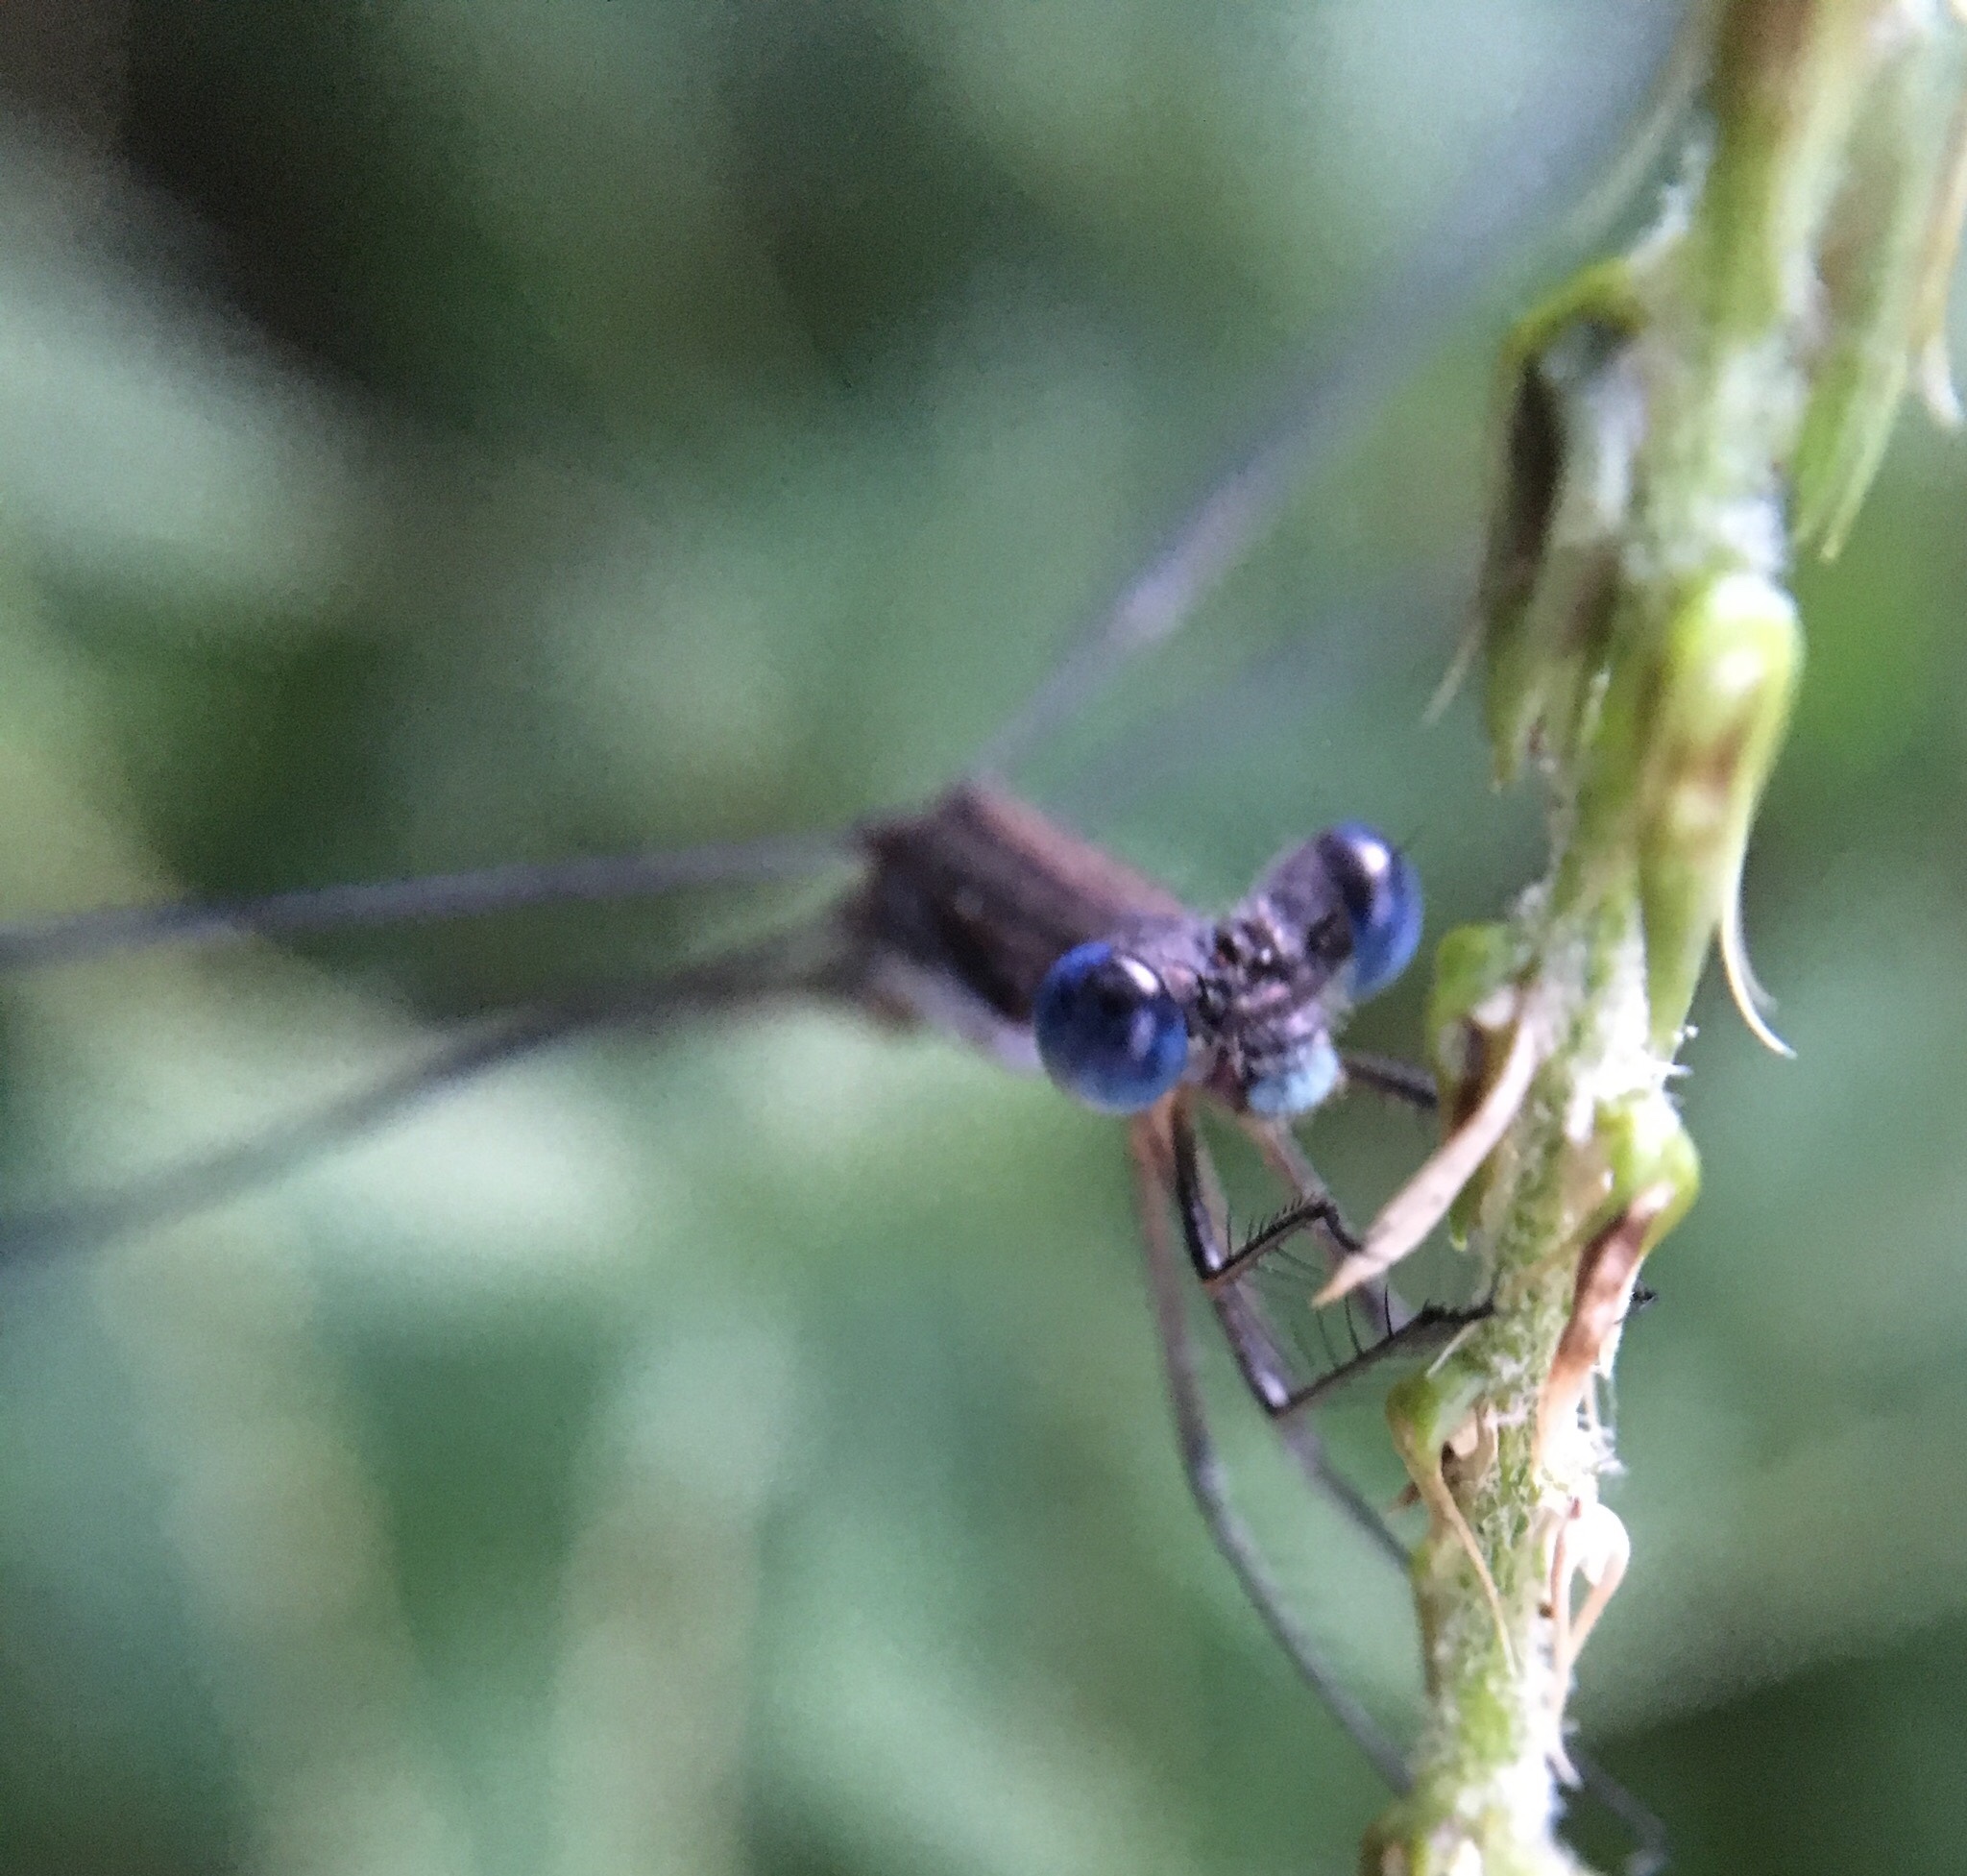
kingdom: Animalia
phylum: Arthropoda
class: Insecta
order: Odonata
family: Lestidae
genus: Lestes
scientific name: Lestes australis
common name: Southern spreadwing
